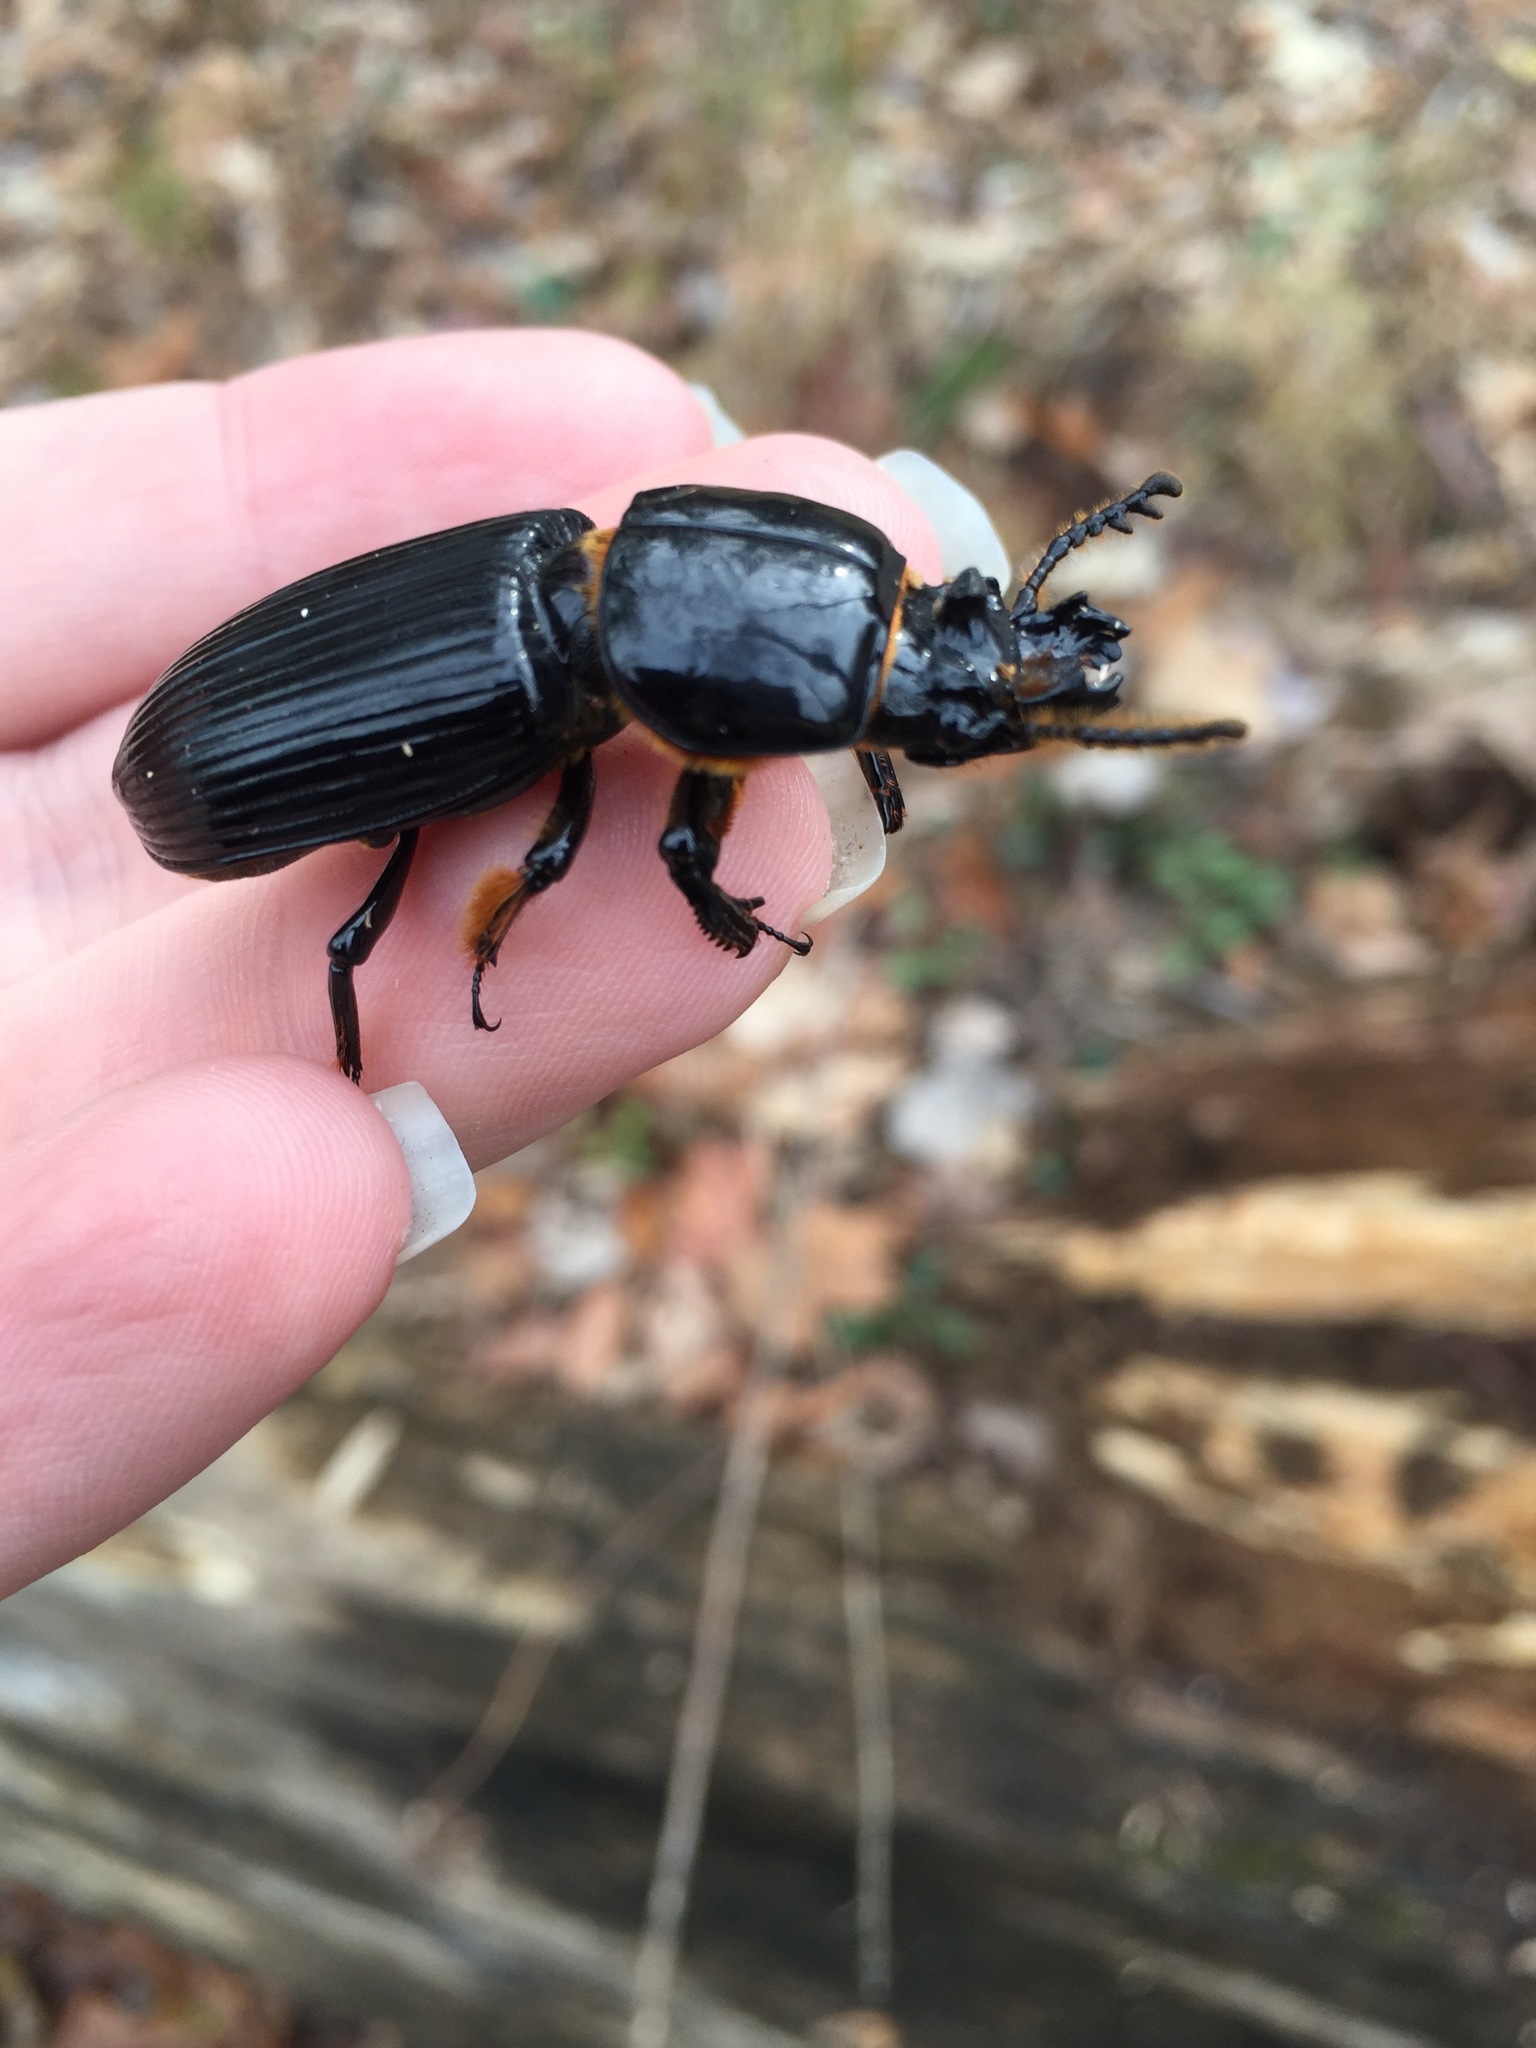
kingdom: Animalia
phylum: Arthropoda
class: Insecta
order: Coleoptera
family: Passalidae
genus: Odontotaenius
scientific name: Odontotaenius disjunctus
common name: Patent leather beetle
